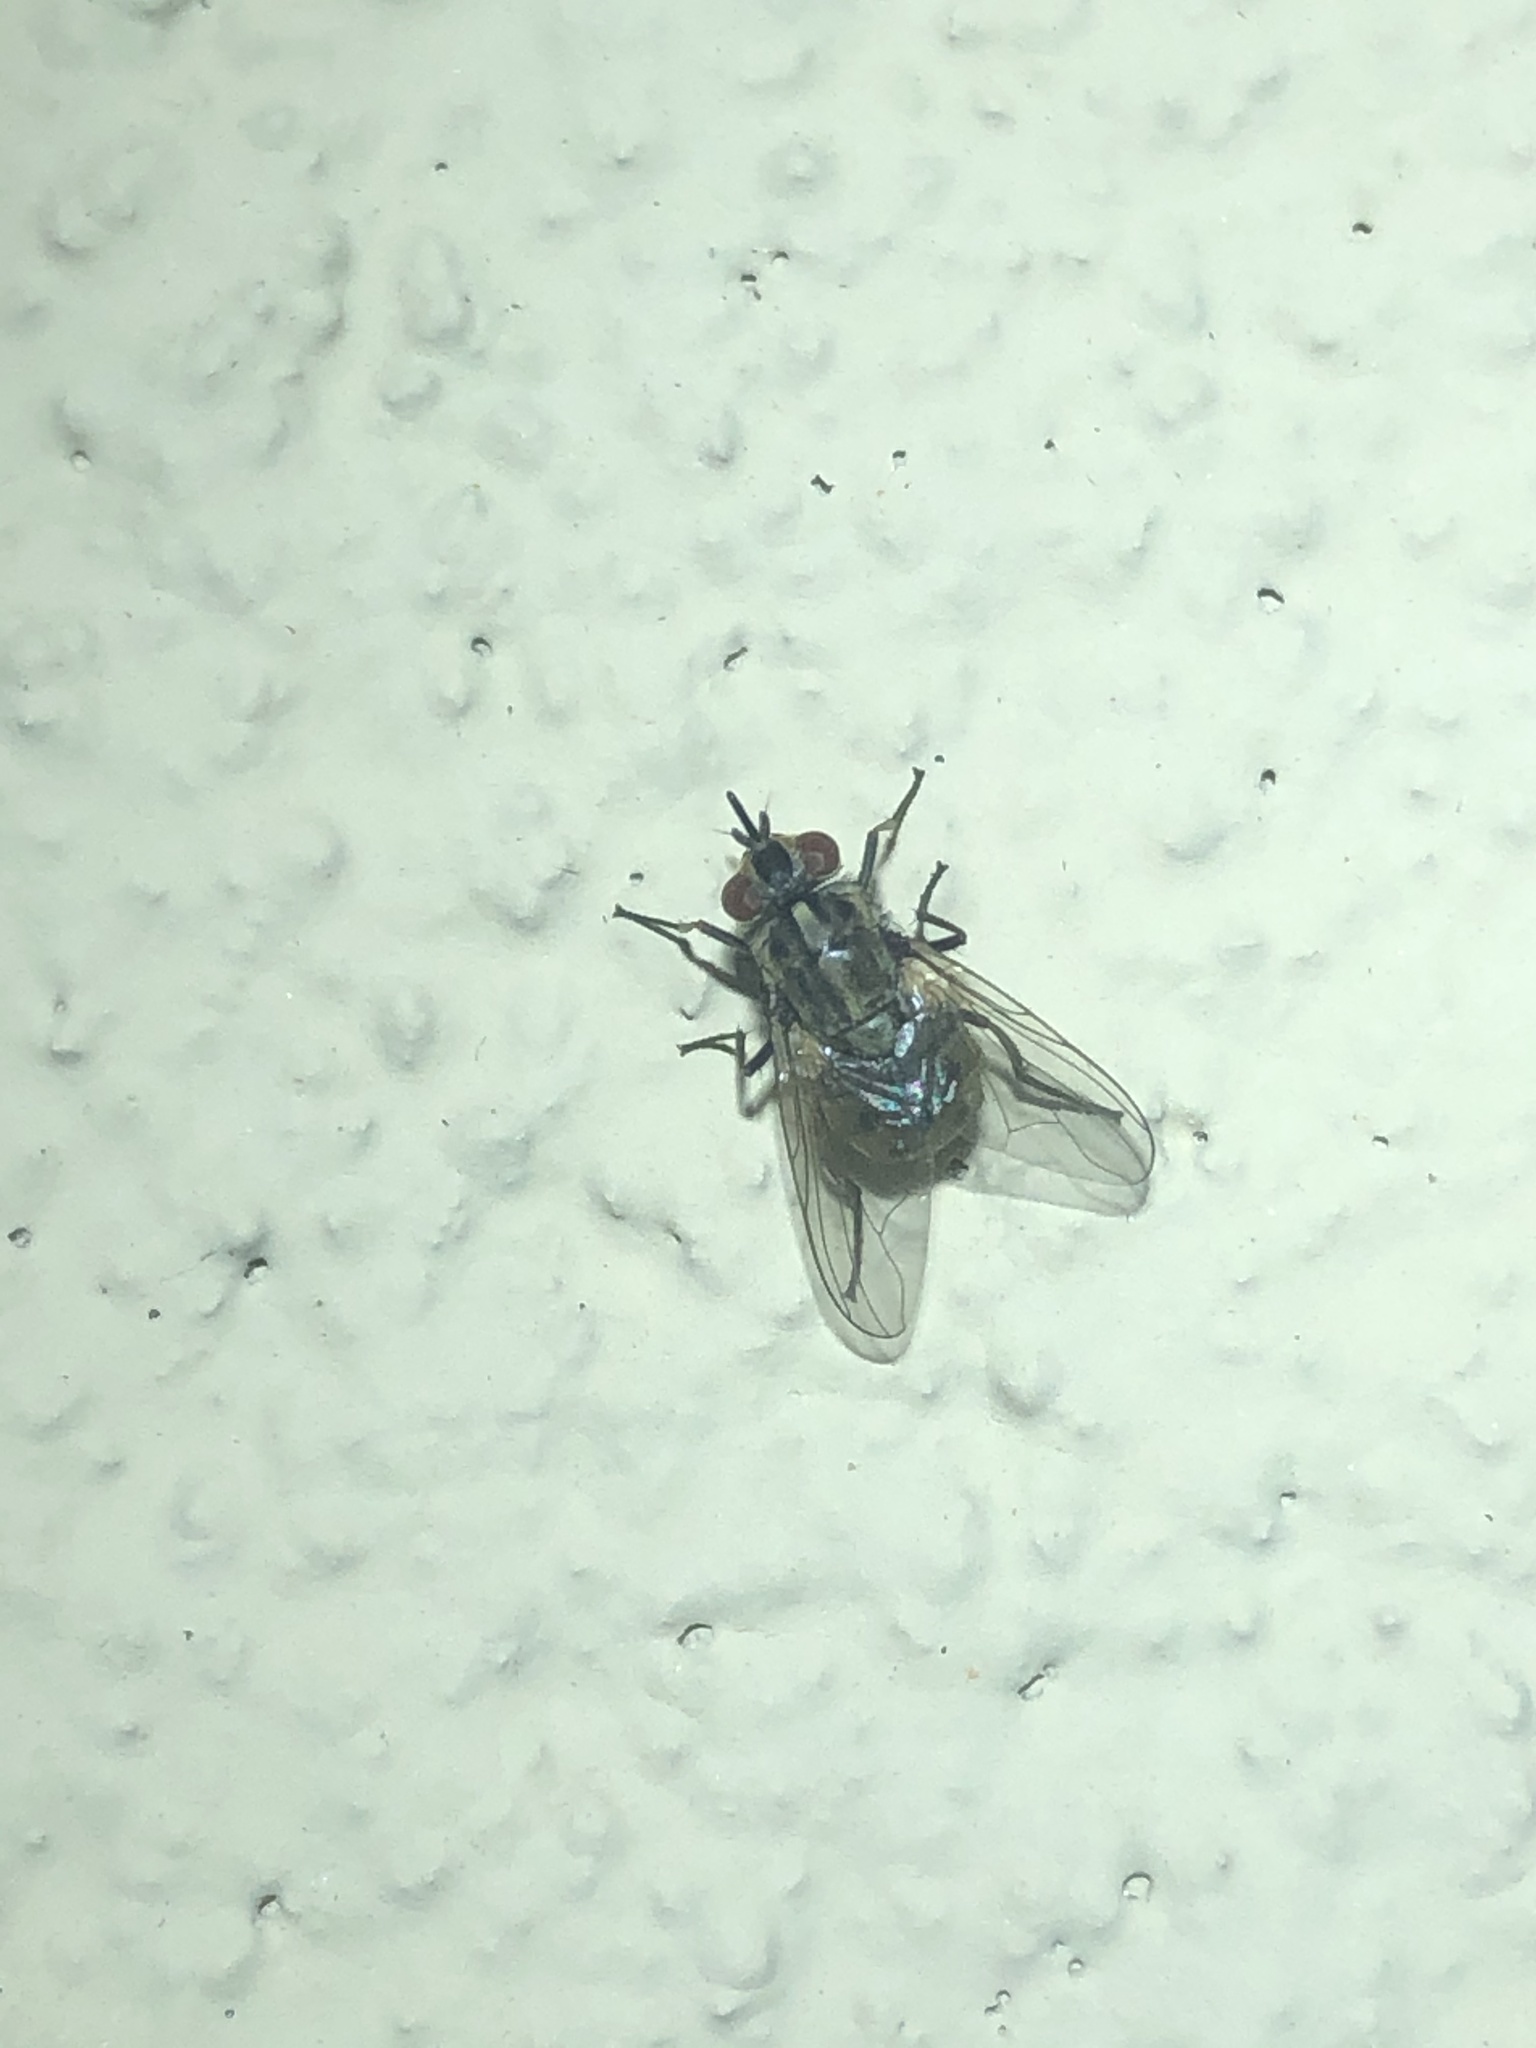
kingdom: Animalia
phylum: Arthropoda
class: Insecta
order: Diptera
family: Muscidae
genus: Stomoxys
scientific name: Stomoxys calcitrans
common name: Stable fly
